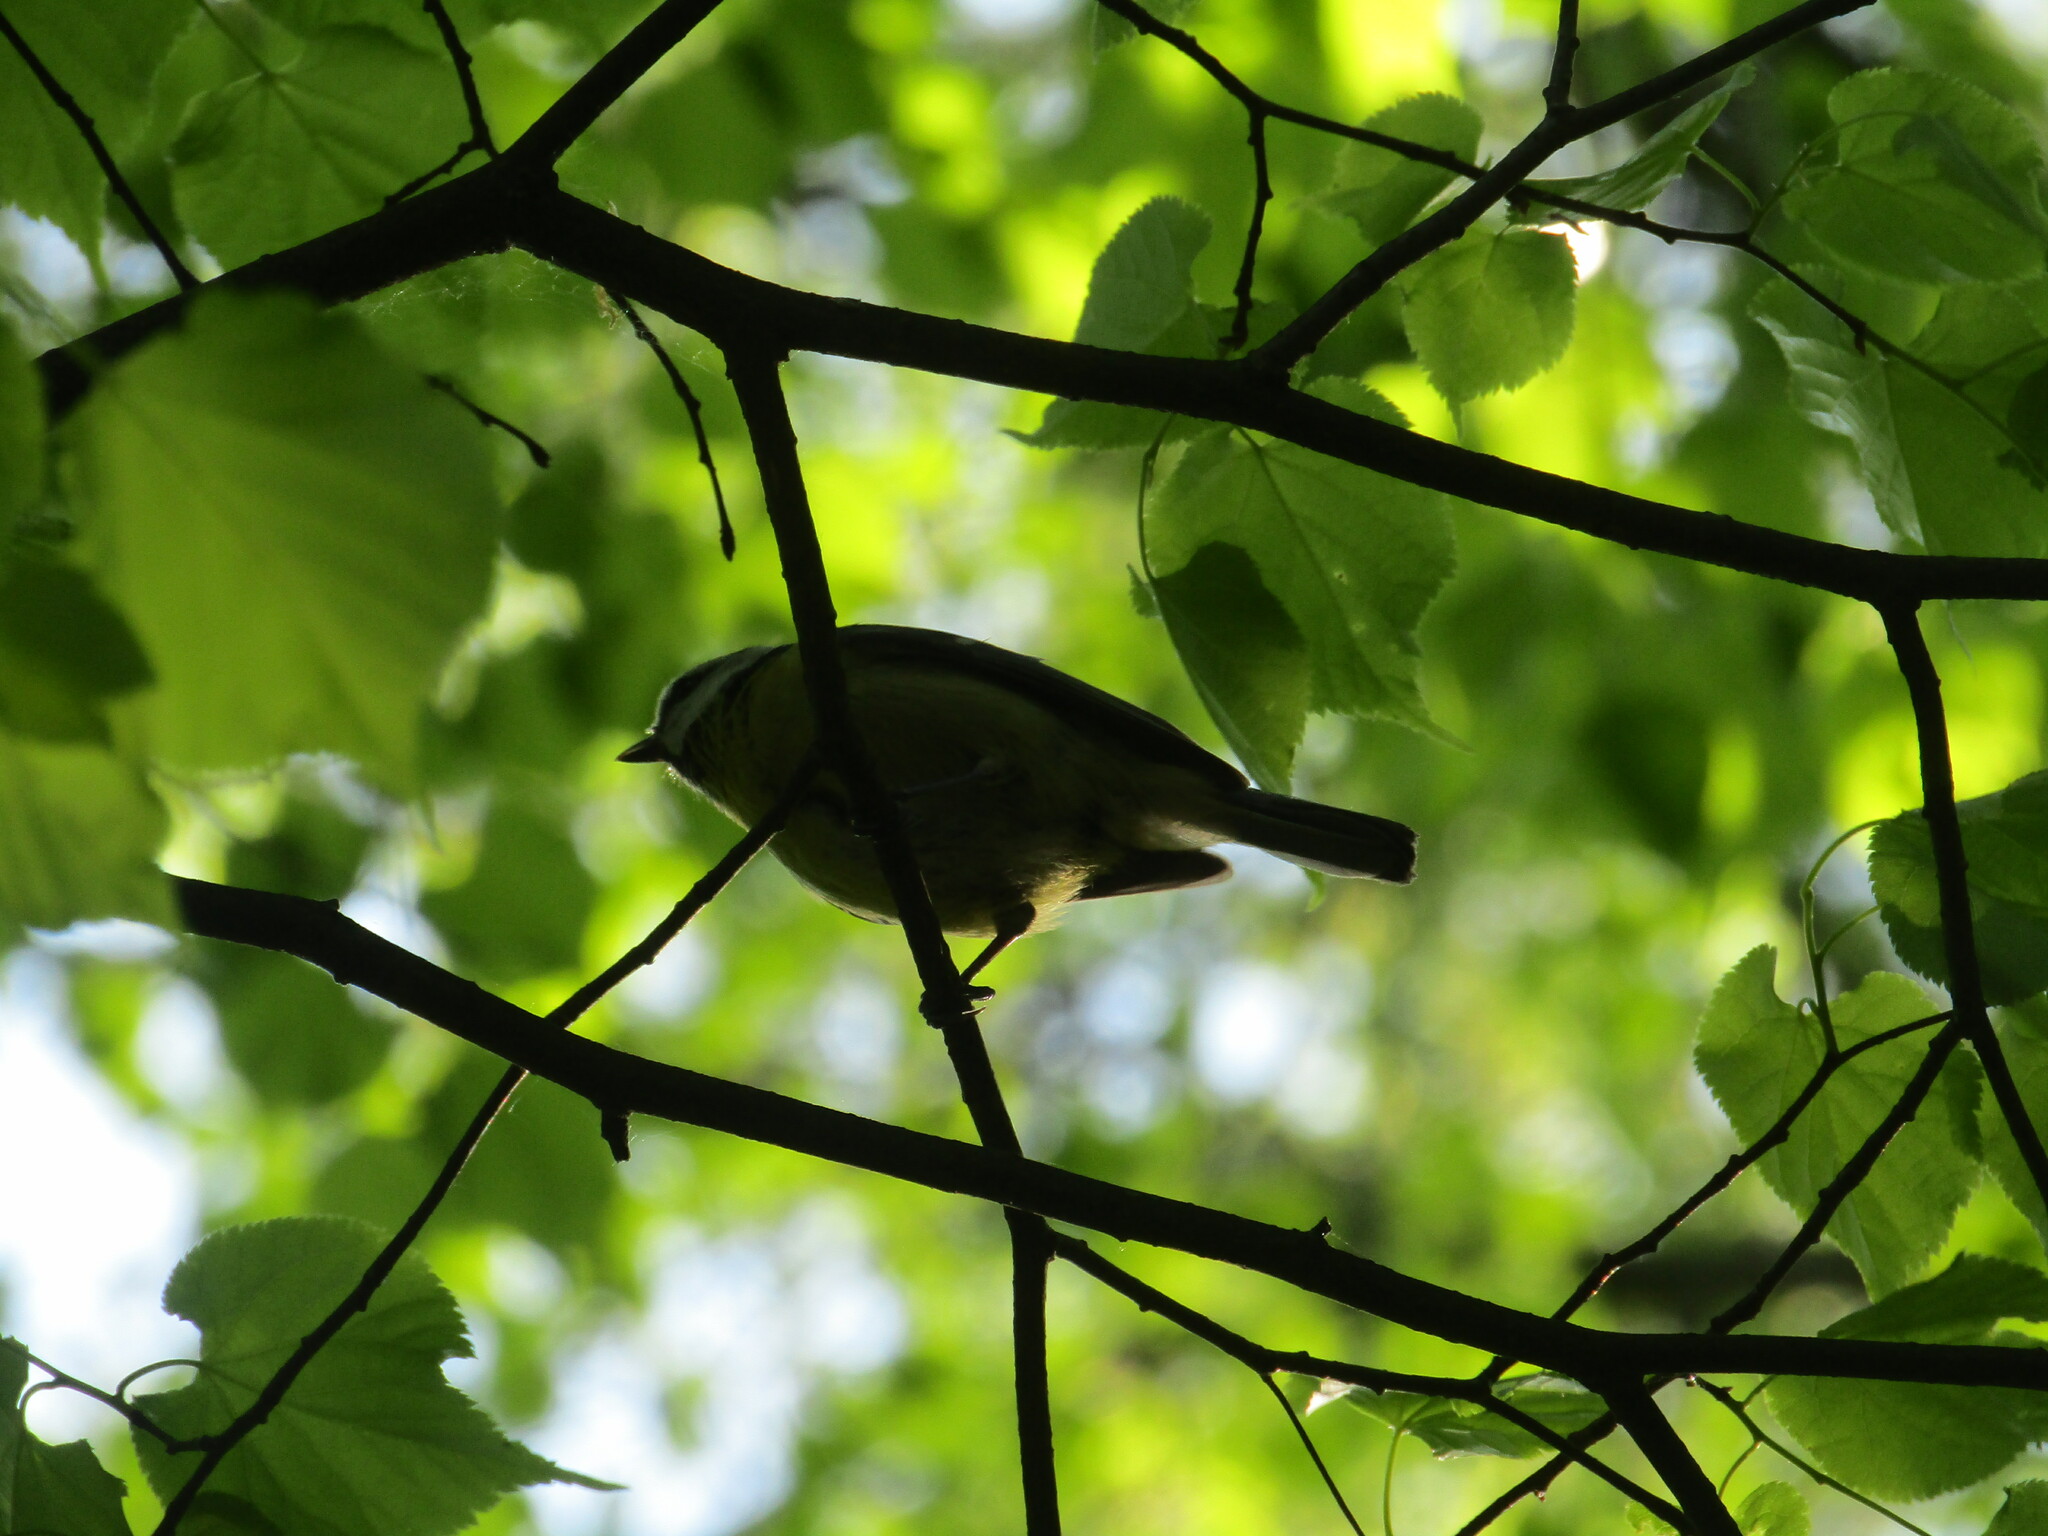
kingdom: Animalia
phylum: Chordata
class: Aves
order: Passeriformes
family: Paridae
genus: Cyanistes
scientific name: Cyanistes caeruleus
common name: Eurasian blue tit
